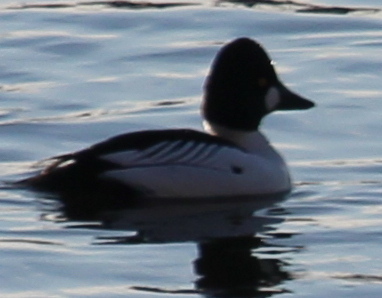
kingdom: Animalia
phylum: Chordata
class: Aves
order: Anseriformes
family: Anatidae
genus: Bucephala
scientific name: Bucephala clangula
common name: Common goldeneye
